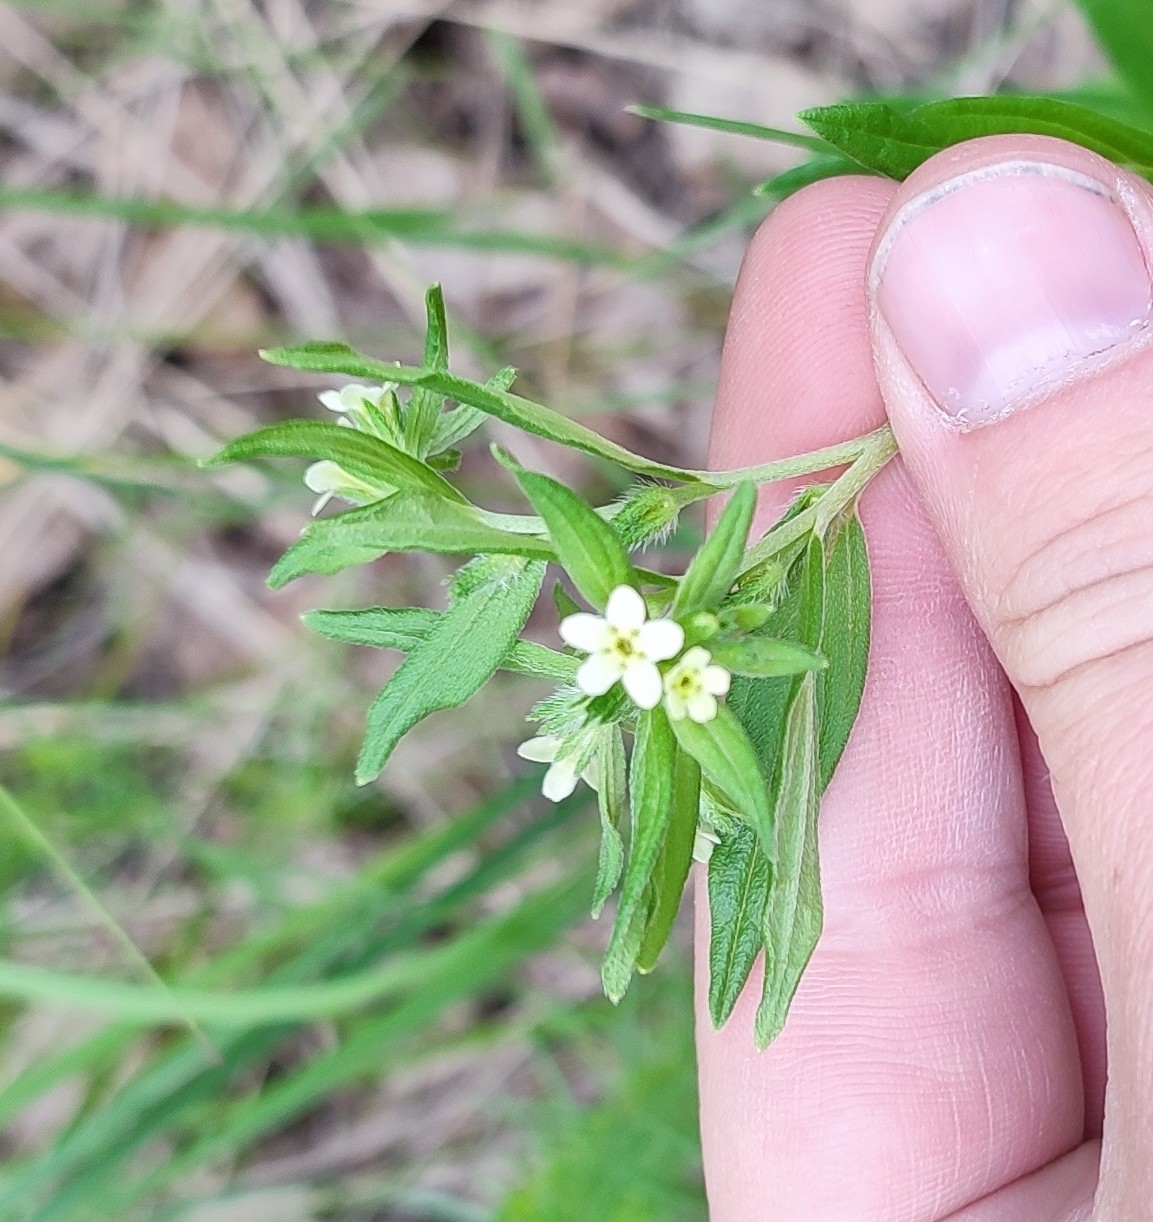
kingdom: Plantae
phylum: Tracheophyta
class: Magnoliopsida
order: Boraginales
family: Boraginaceae
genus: Lithospermum
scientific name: Lithospermum officinale
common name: Common gromwell
